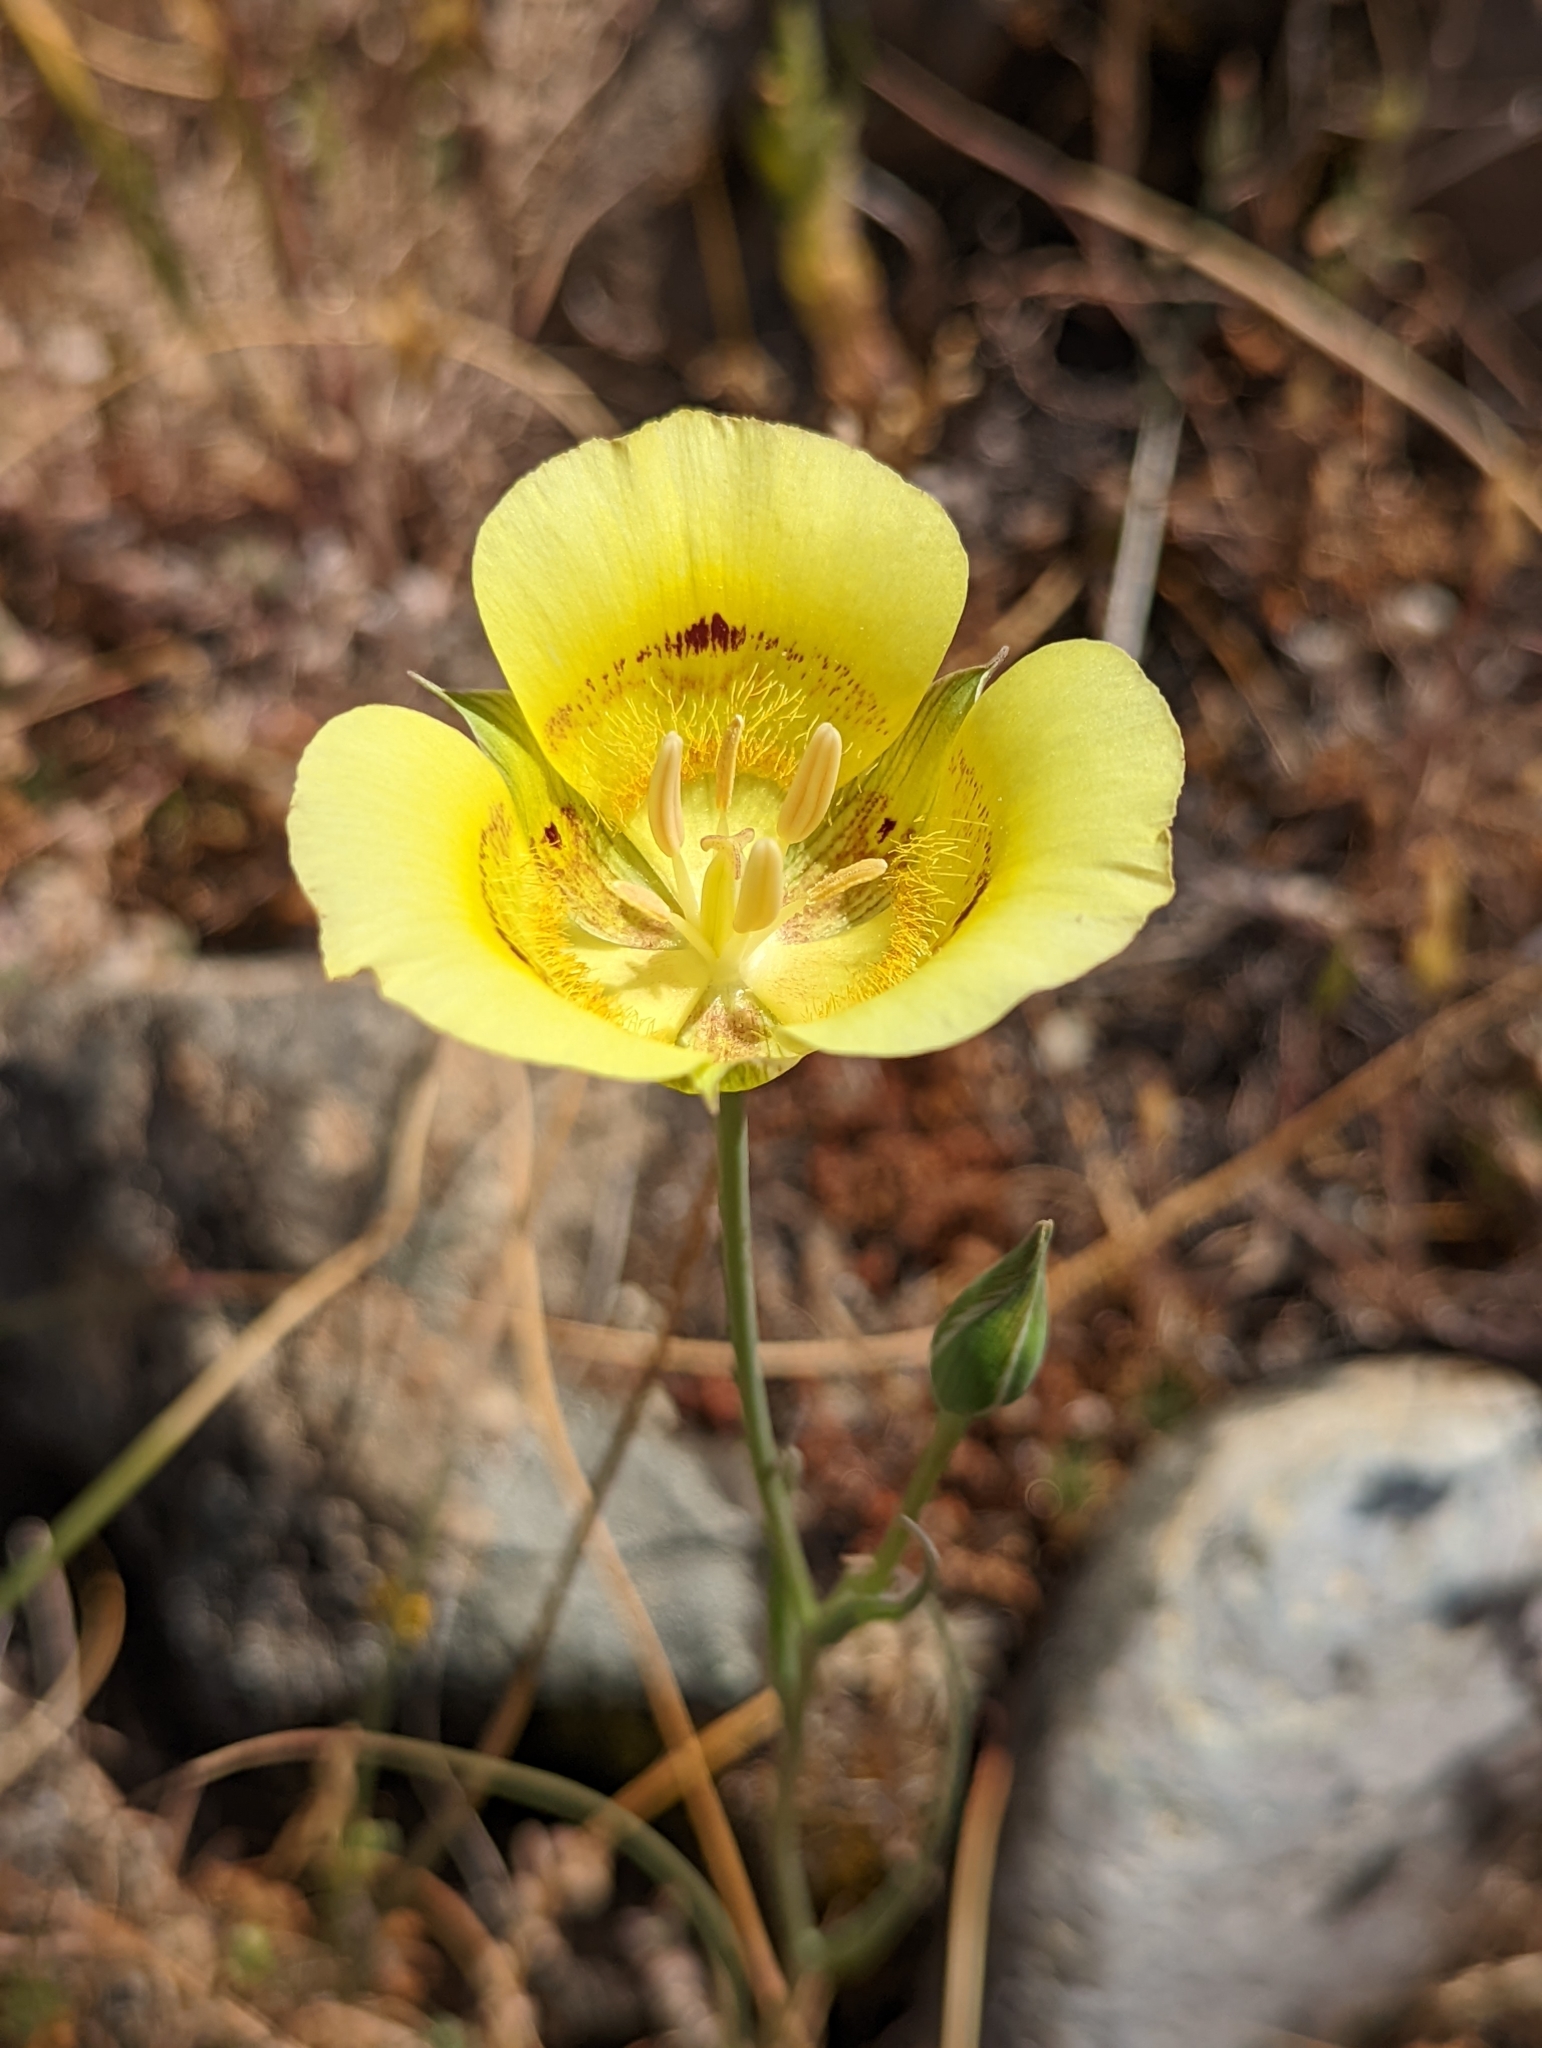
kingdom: Plantae
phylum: Tracheophyta
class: Liliopsida
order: Liliales
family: Liliaceae
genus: Calochortus
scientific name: Calochortus luteus
